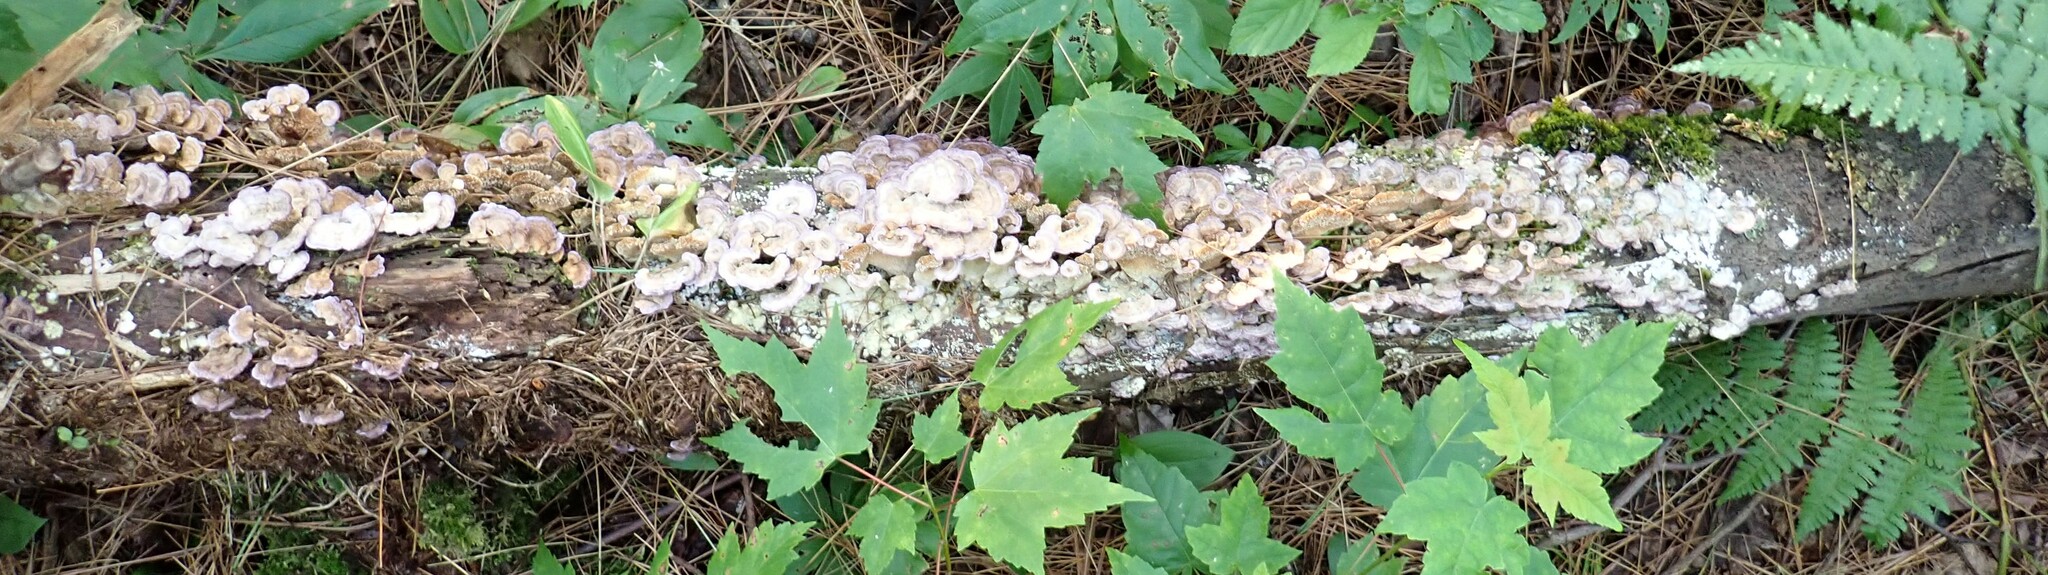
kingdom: Fungi
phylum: Basidiomycota
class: Agaricomycetes
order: Hymenochaetales
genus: Trichaptum
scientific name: Trichaptum biforme
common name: Violet-toothed polypore
